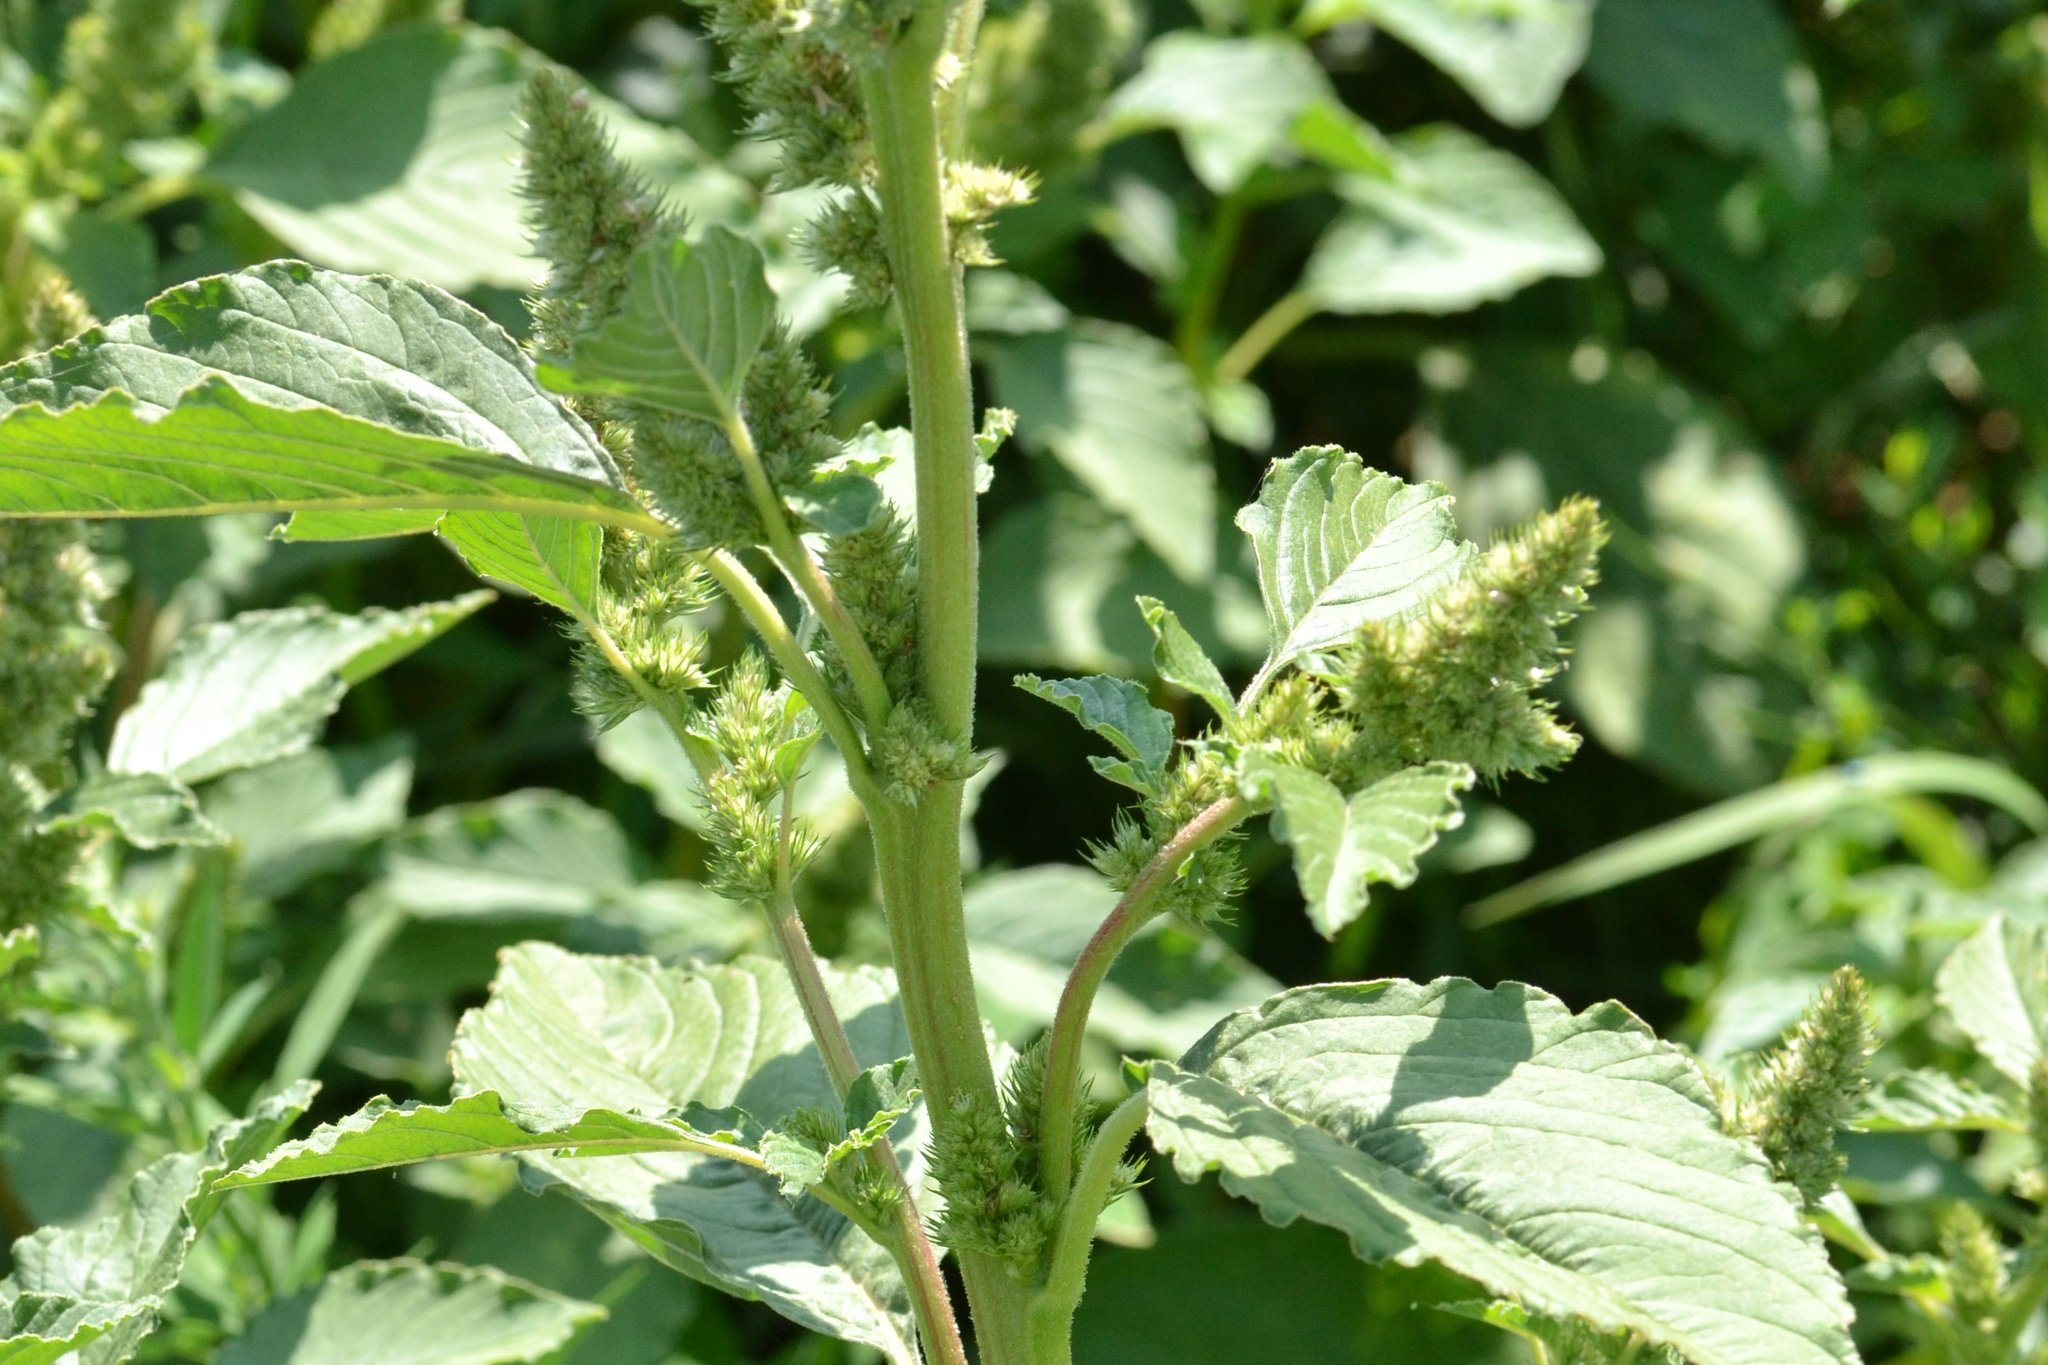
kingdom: Plantae
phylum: Tracheophyta
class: Magnoliopsida
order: Caryophyllales
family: Amaranthaceae
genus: Amaranthus
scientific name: Amaranthus retroflexus
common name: Redroot amaranth
